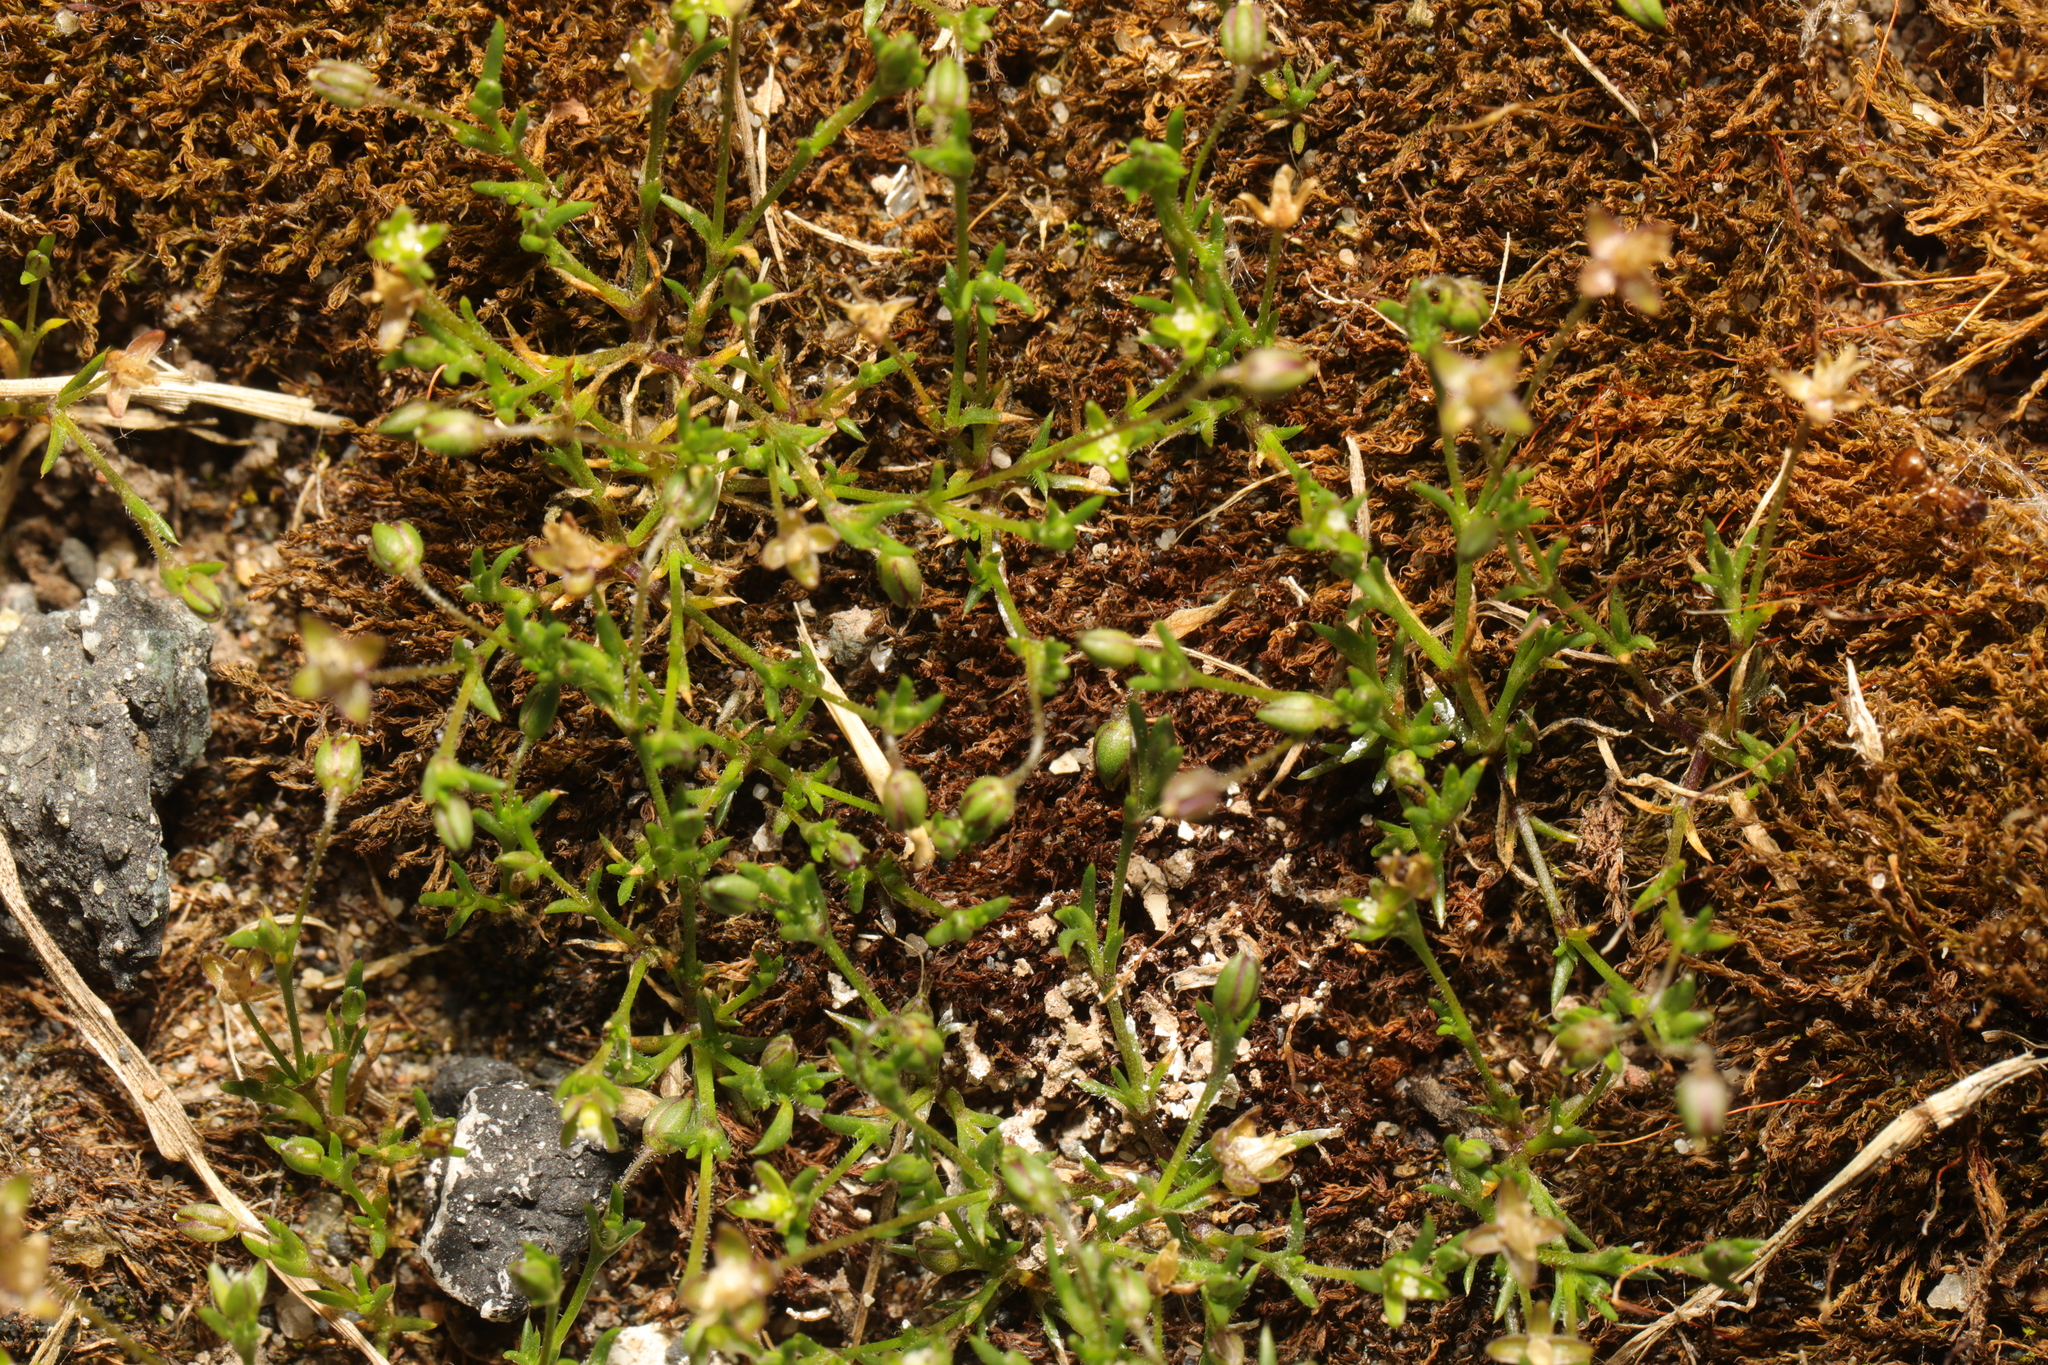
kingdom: Plantae
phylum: Tracheophyta
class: Magnoliopsida
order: Caryophyllales
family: Caryophyllaceae
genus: Sagina
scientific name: Sagina apetala
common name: Annual pearlwort
